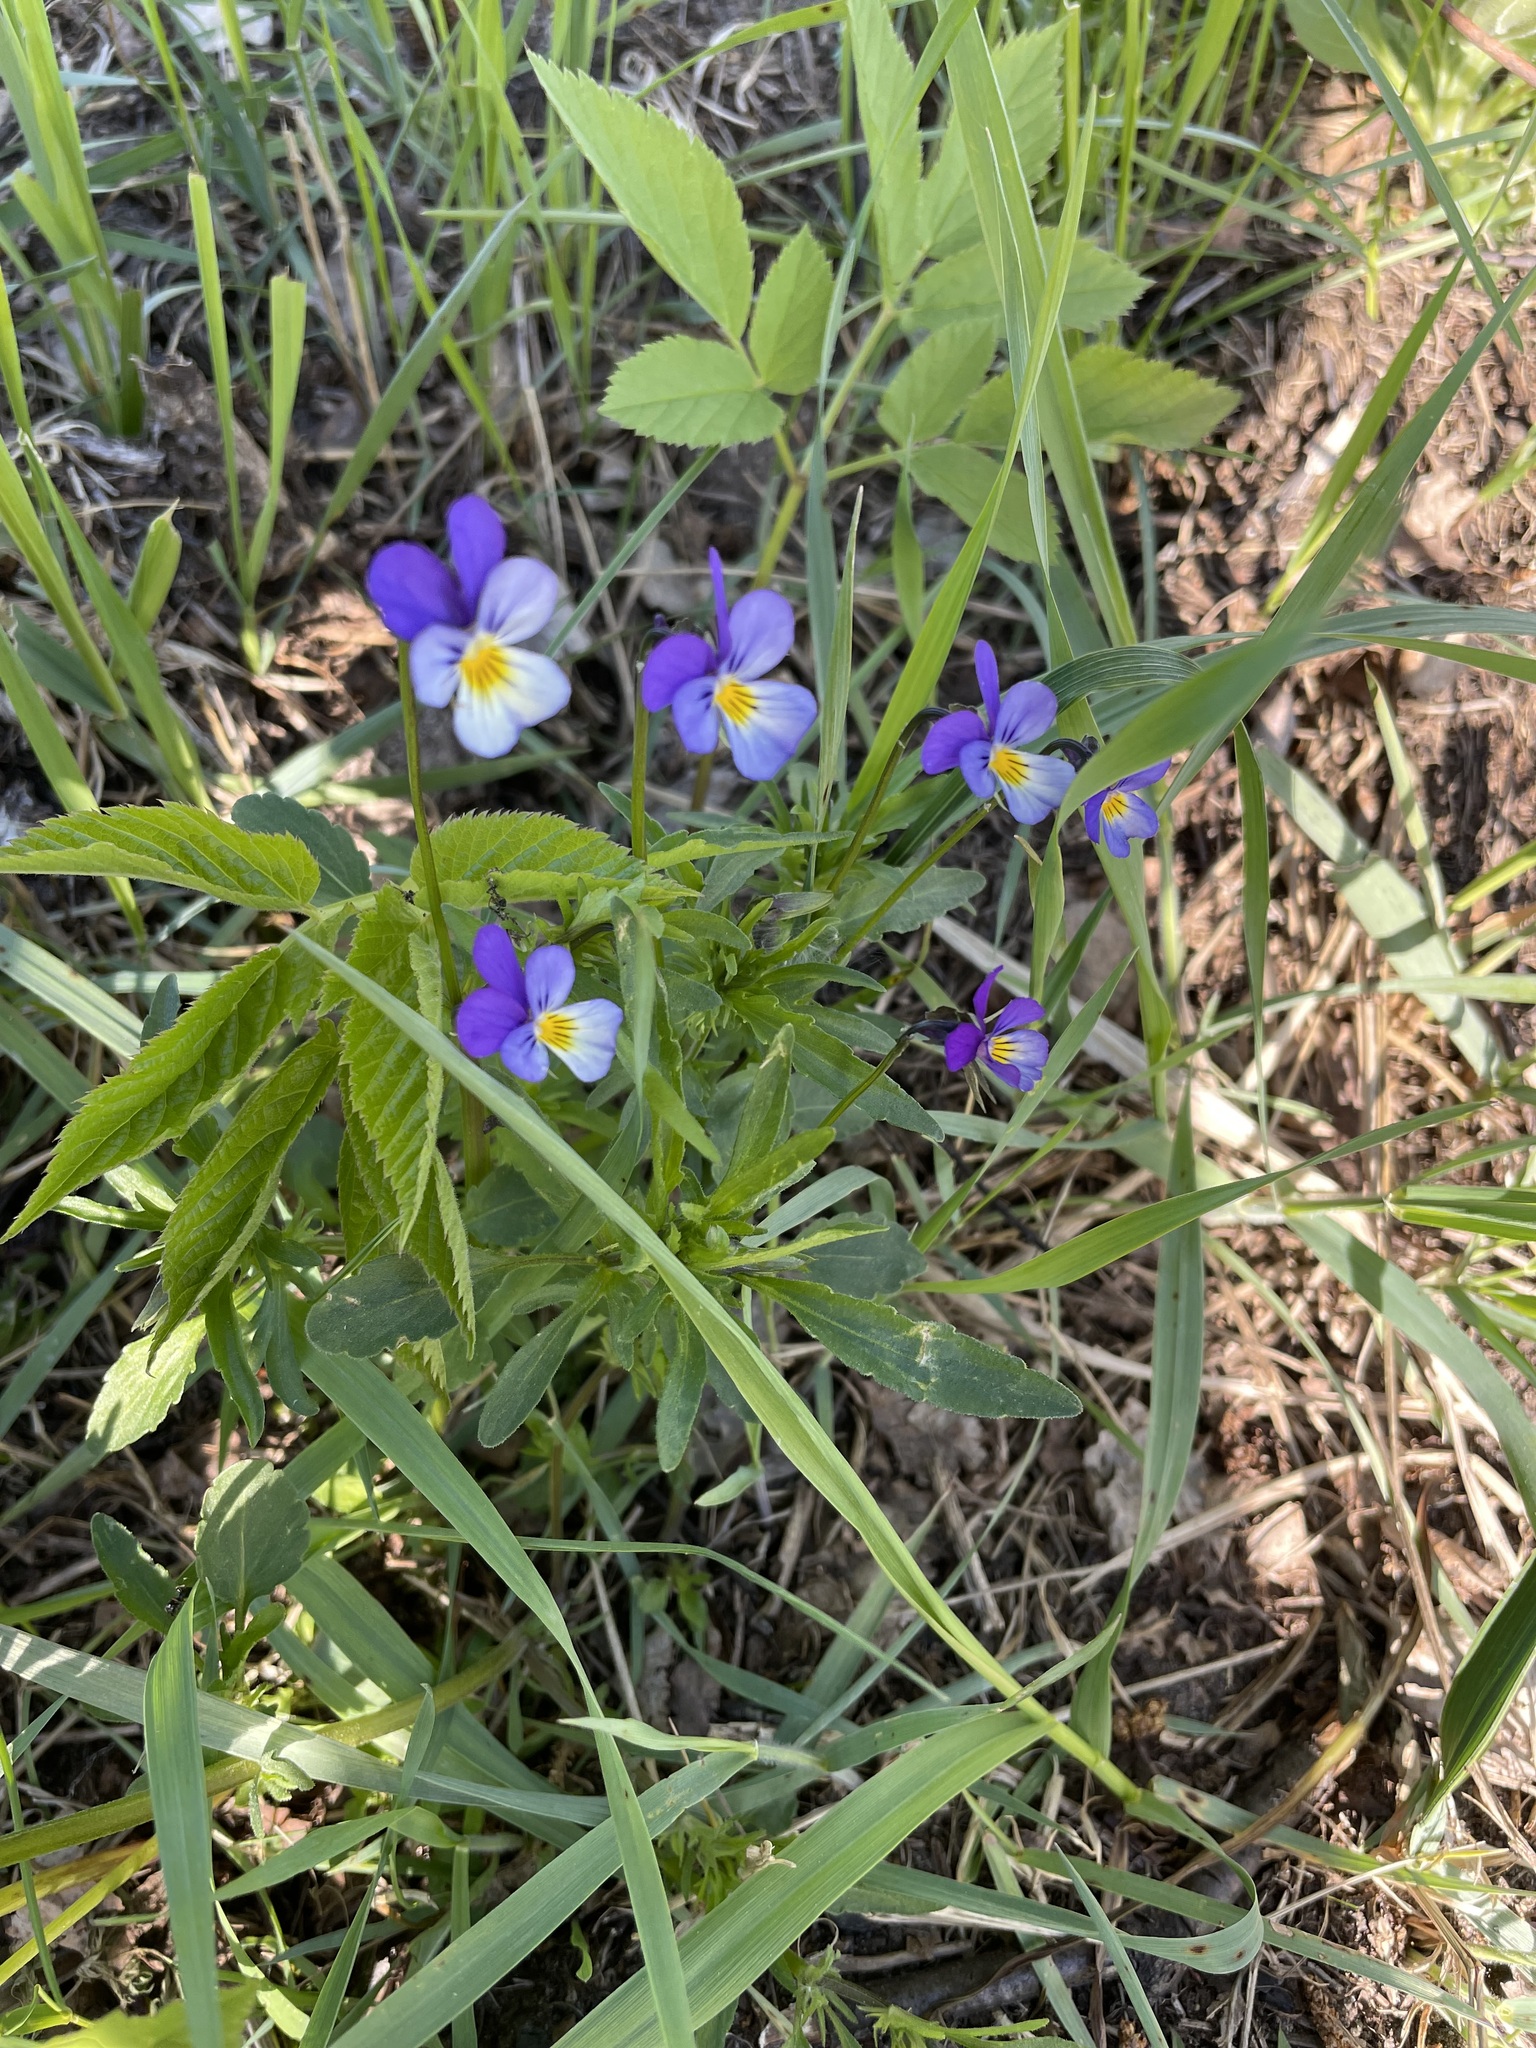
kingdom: Plantae
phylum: Tracheophyta
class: Magnoliopsida
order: Malpighiales
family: Violaceae
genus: Viola
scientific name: Viola tricolor
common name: Pansy
